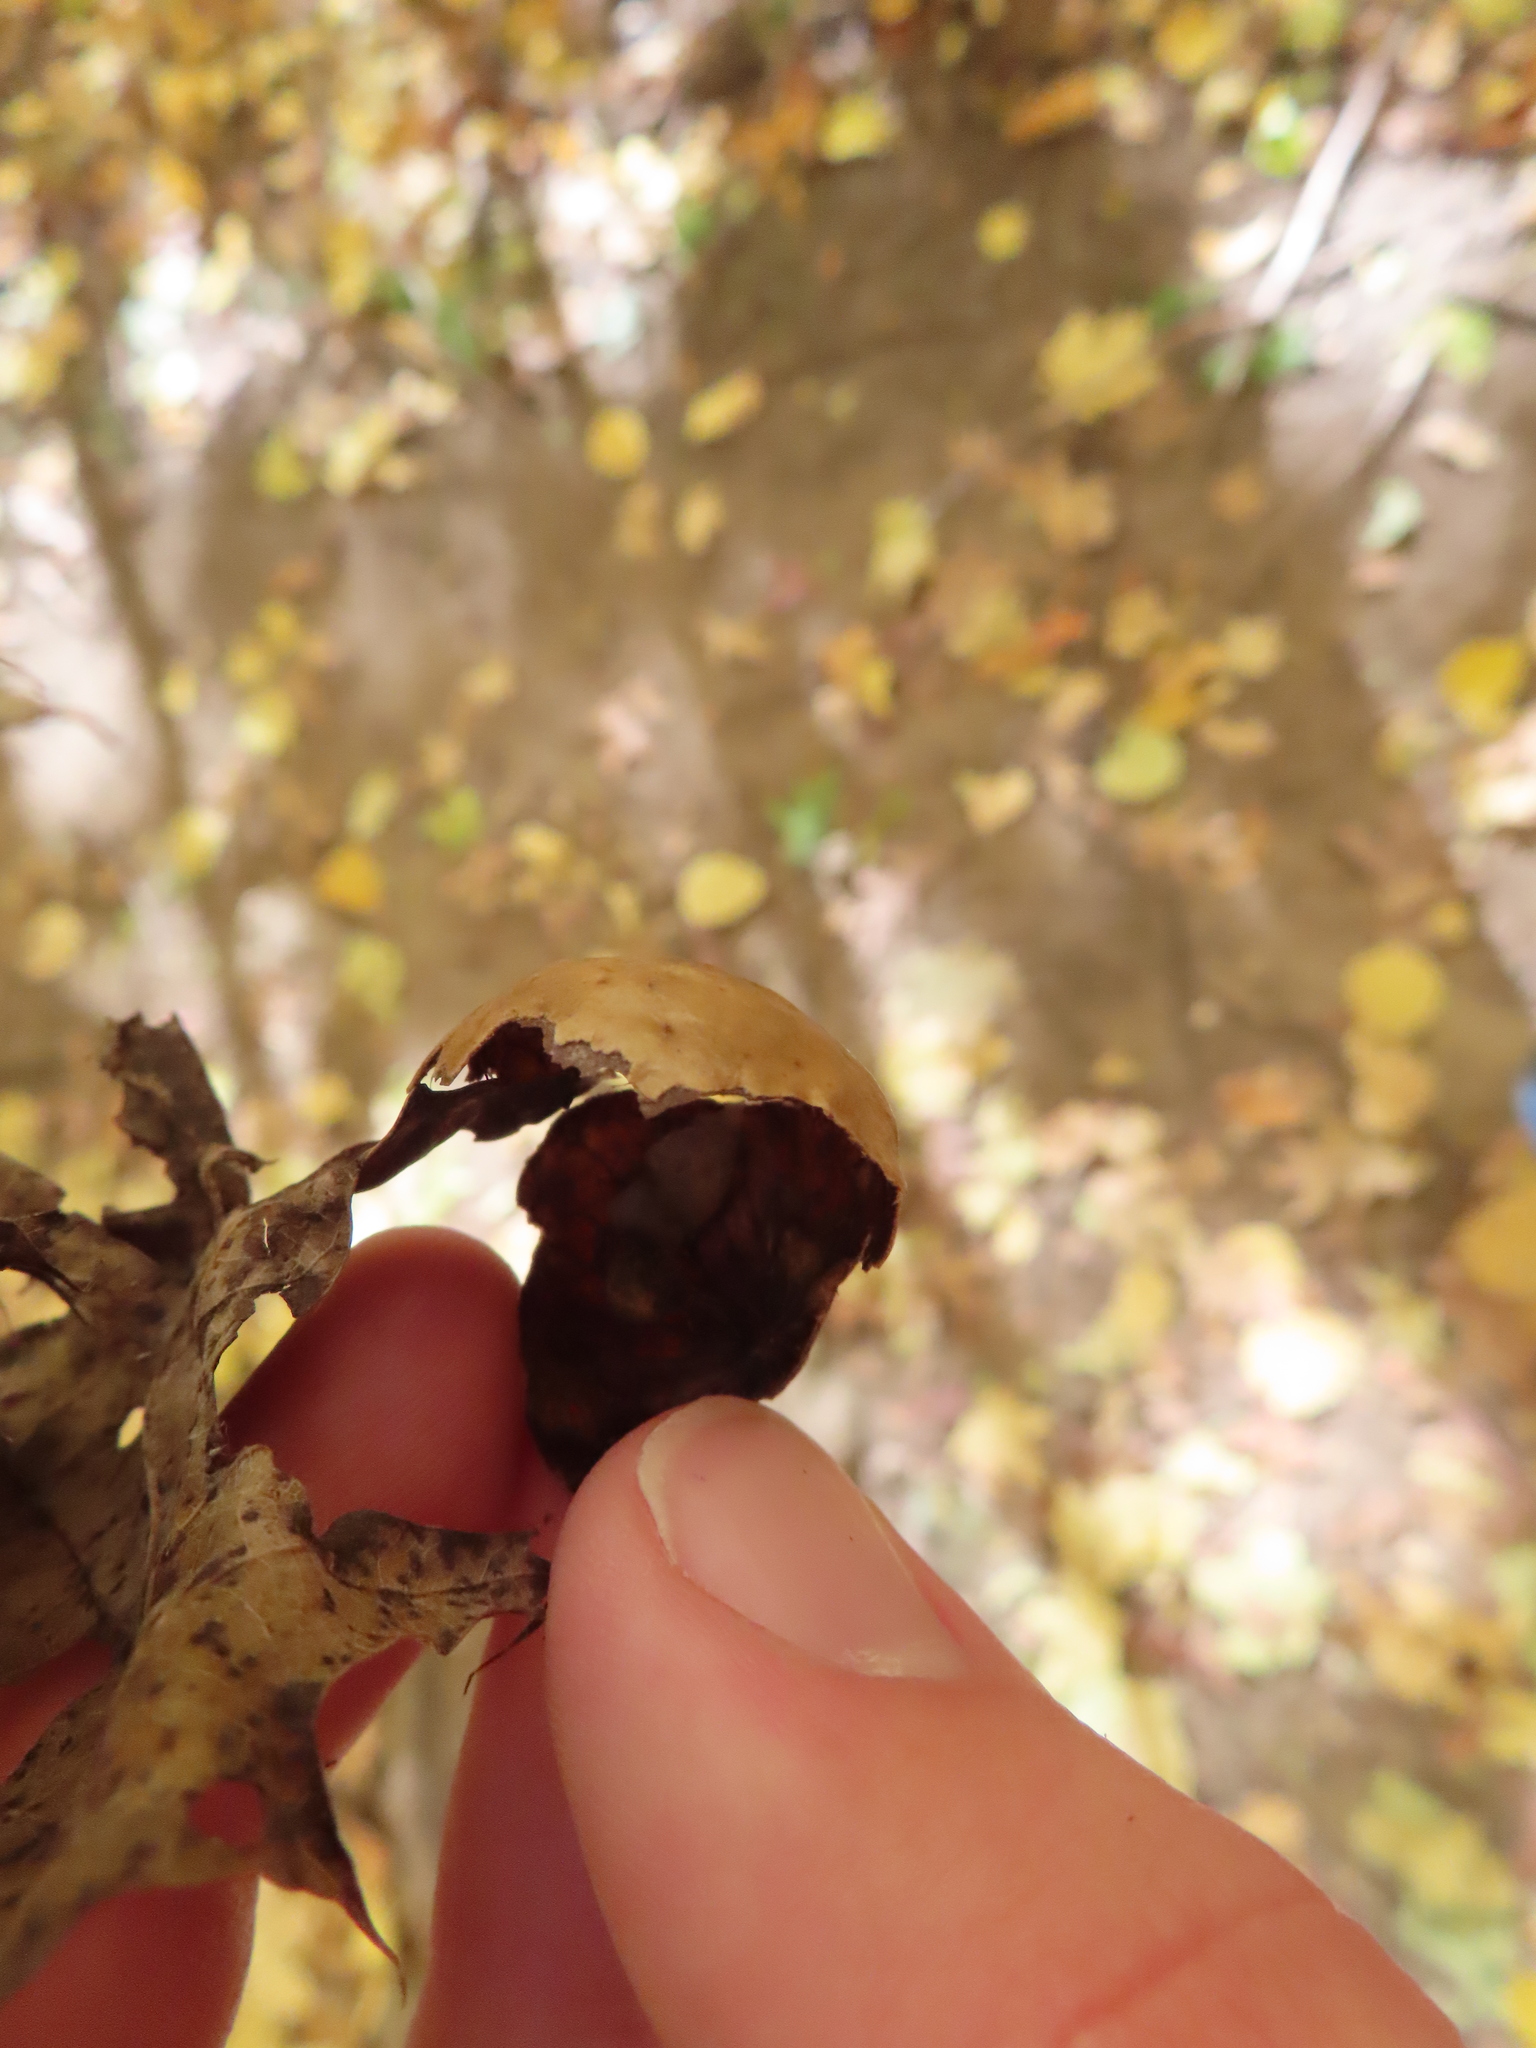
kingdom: Animalia
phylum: Arthropoda
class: Insecta
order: Hymenoptera
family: Cynipidae
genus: Amphibolips
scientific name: Amphibolips
